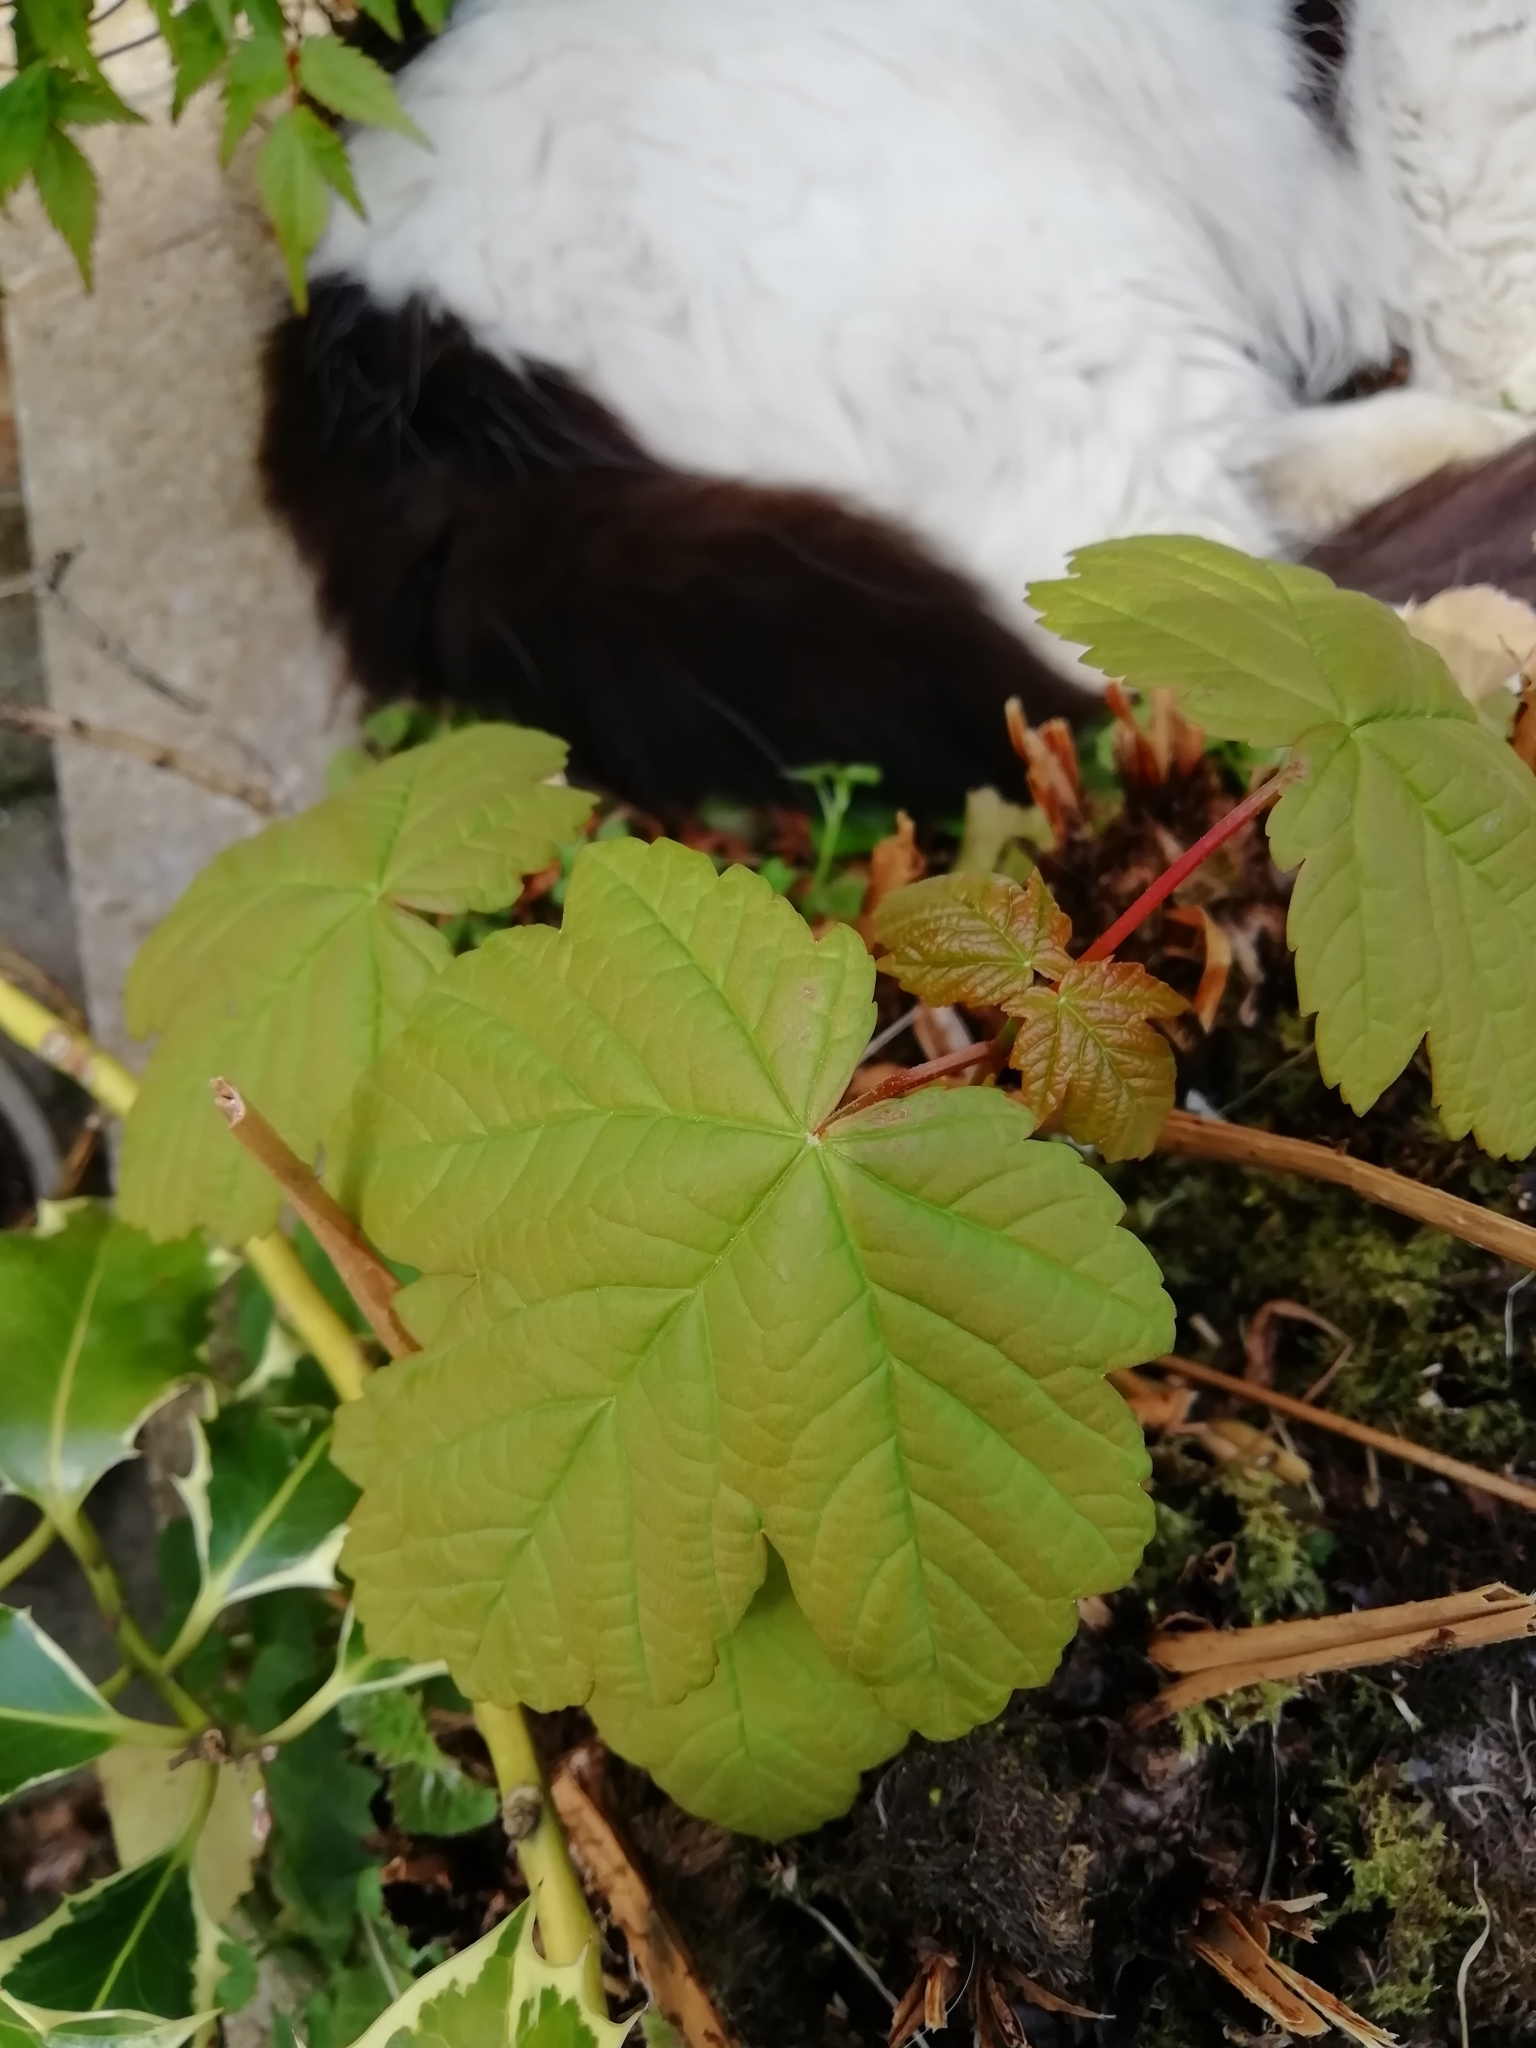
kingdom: Plantae
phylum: Tracheophyta
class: Magnoliopsida
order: Sapindales
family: Sapindaceae
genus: Acer
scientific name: Acer pseudoplatanus
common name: Sycamore
